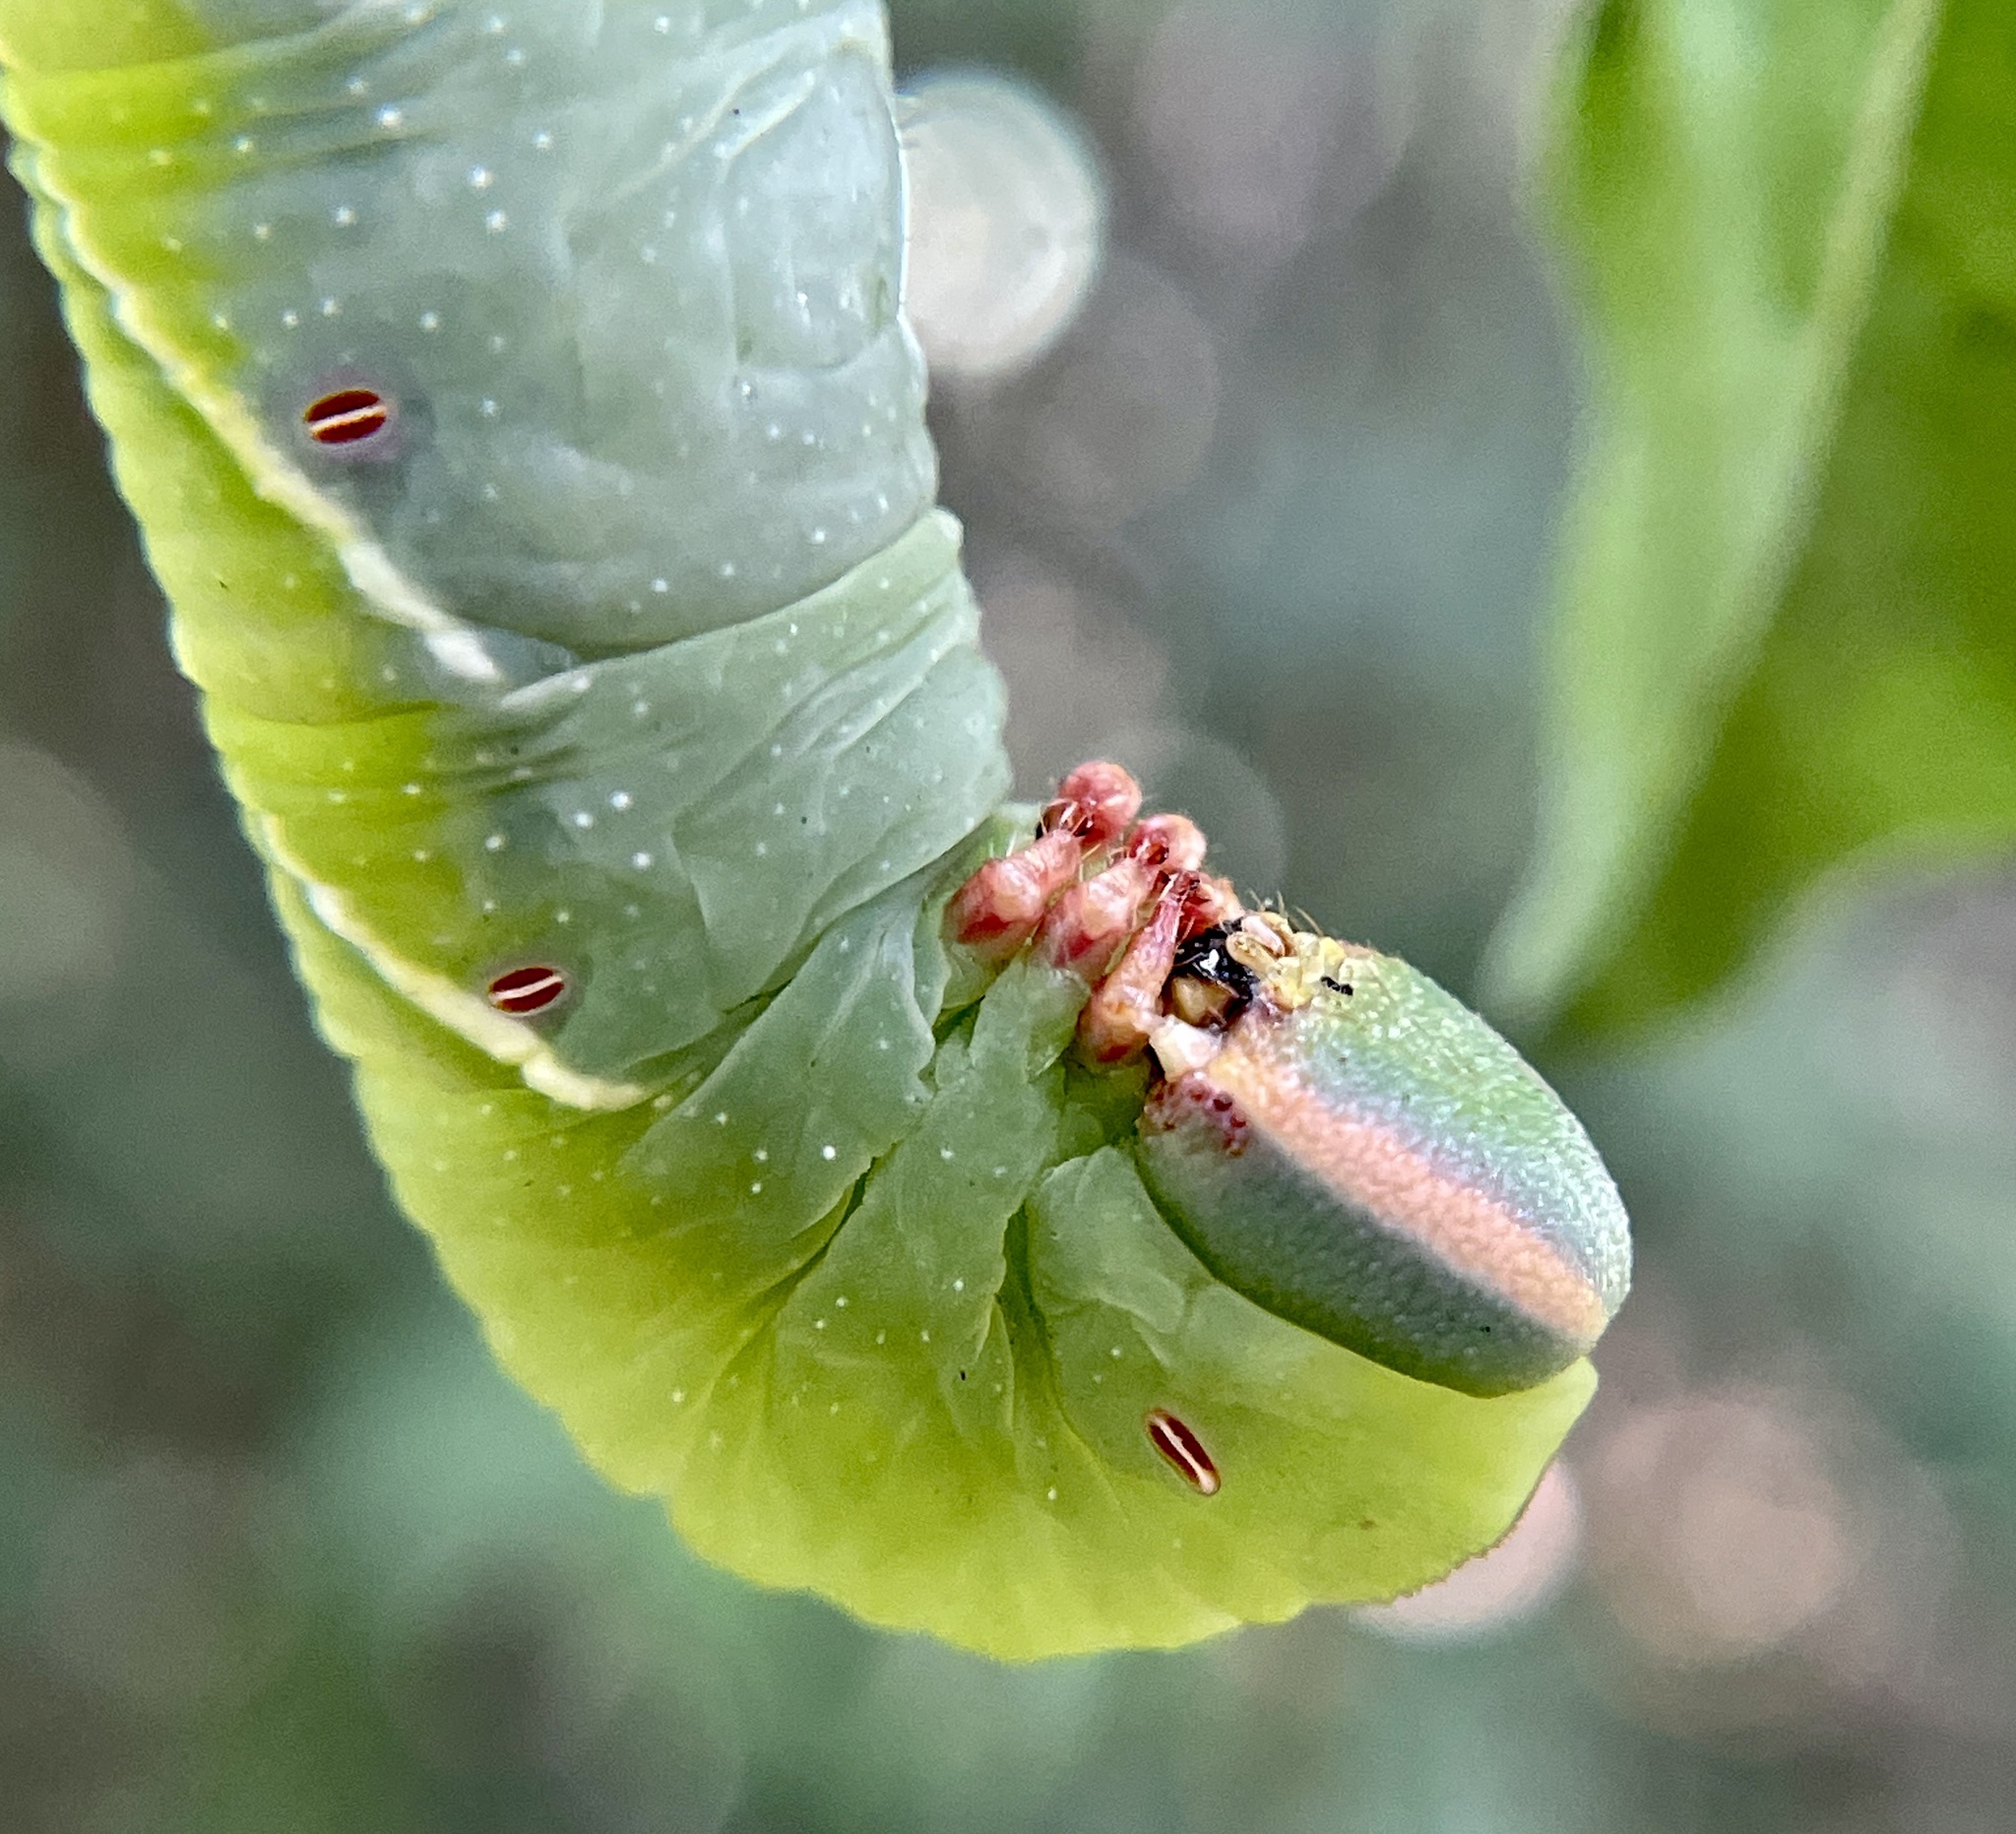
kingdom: Animalia
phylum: Arthropoda
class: Insecta
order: Lepidoptera
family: Sphingidae
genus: Ceratomia
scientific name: Ceratomia undulosa
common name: Waved sphinx
